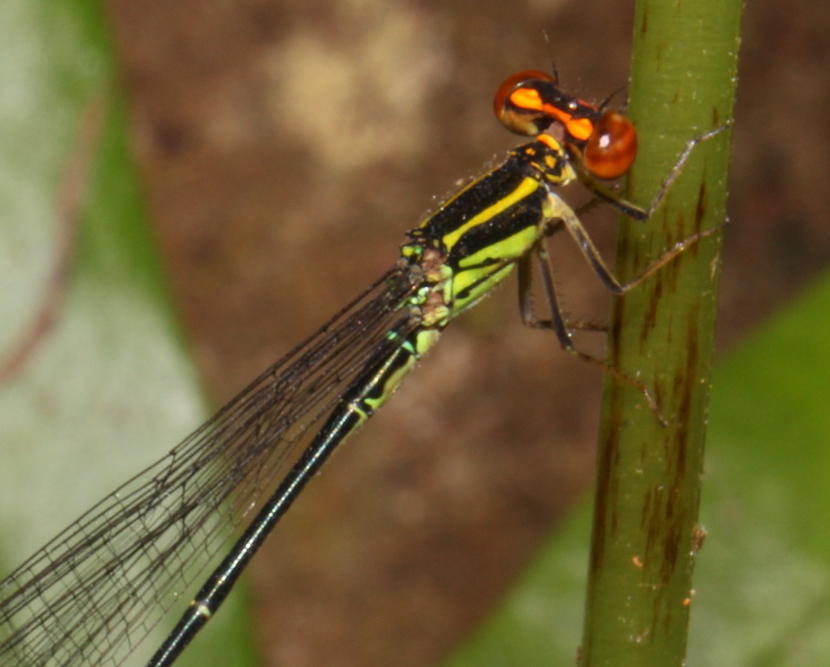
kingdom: Animalia
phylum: Arthropoda
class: Insecta
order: Odonata
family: Coenagrionidae
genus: Pseudagrion
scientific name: Pseudagrion hageni
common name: Painted sprite
